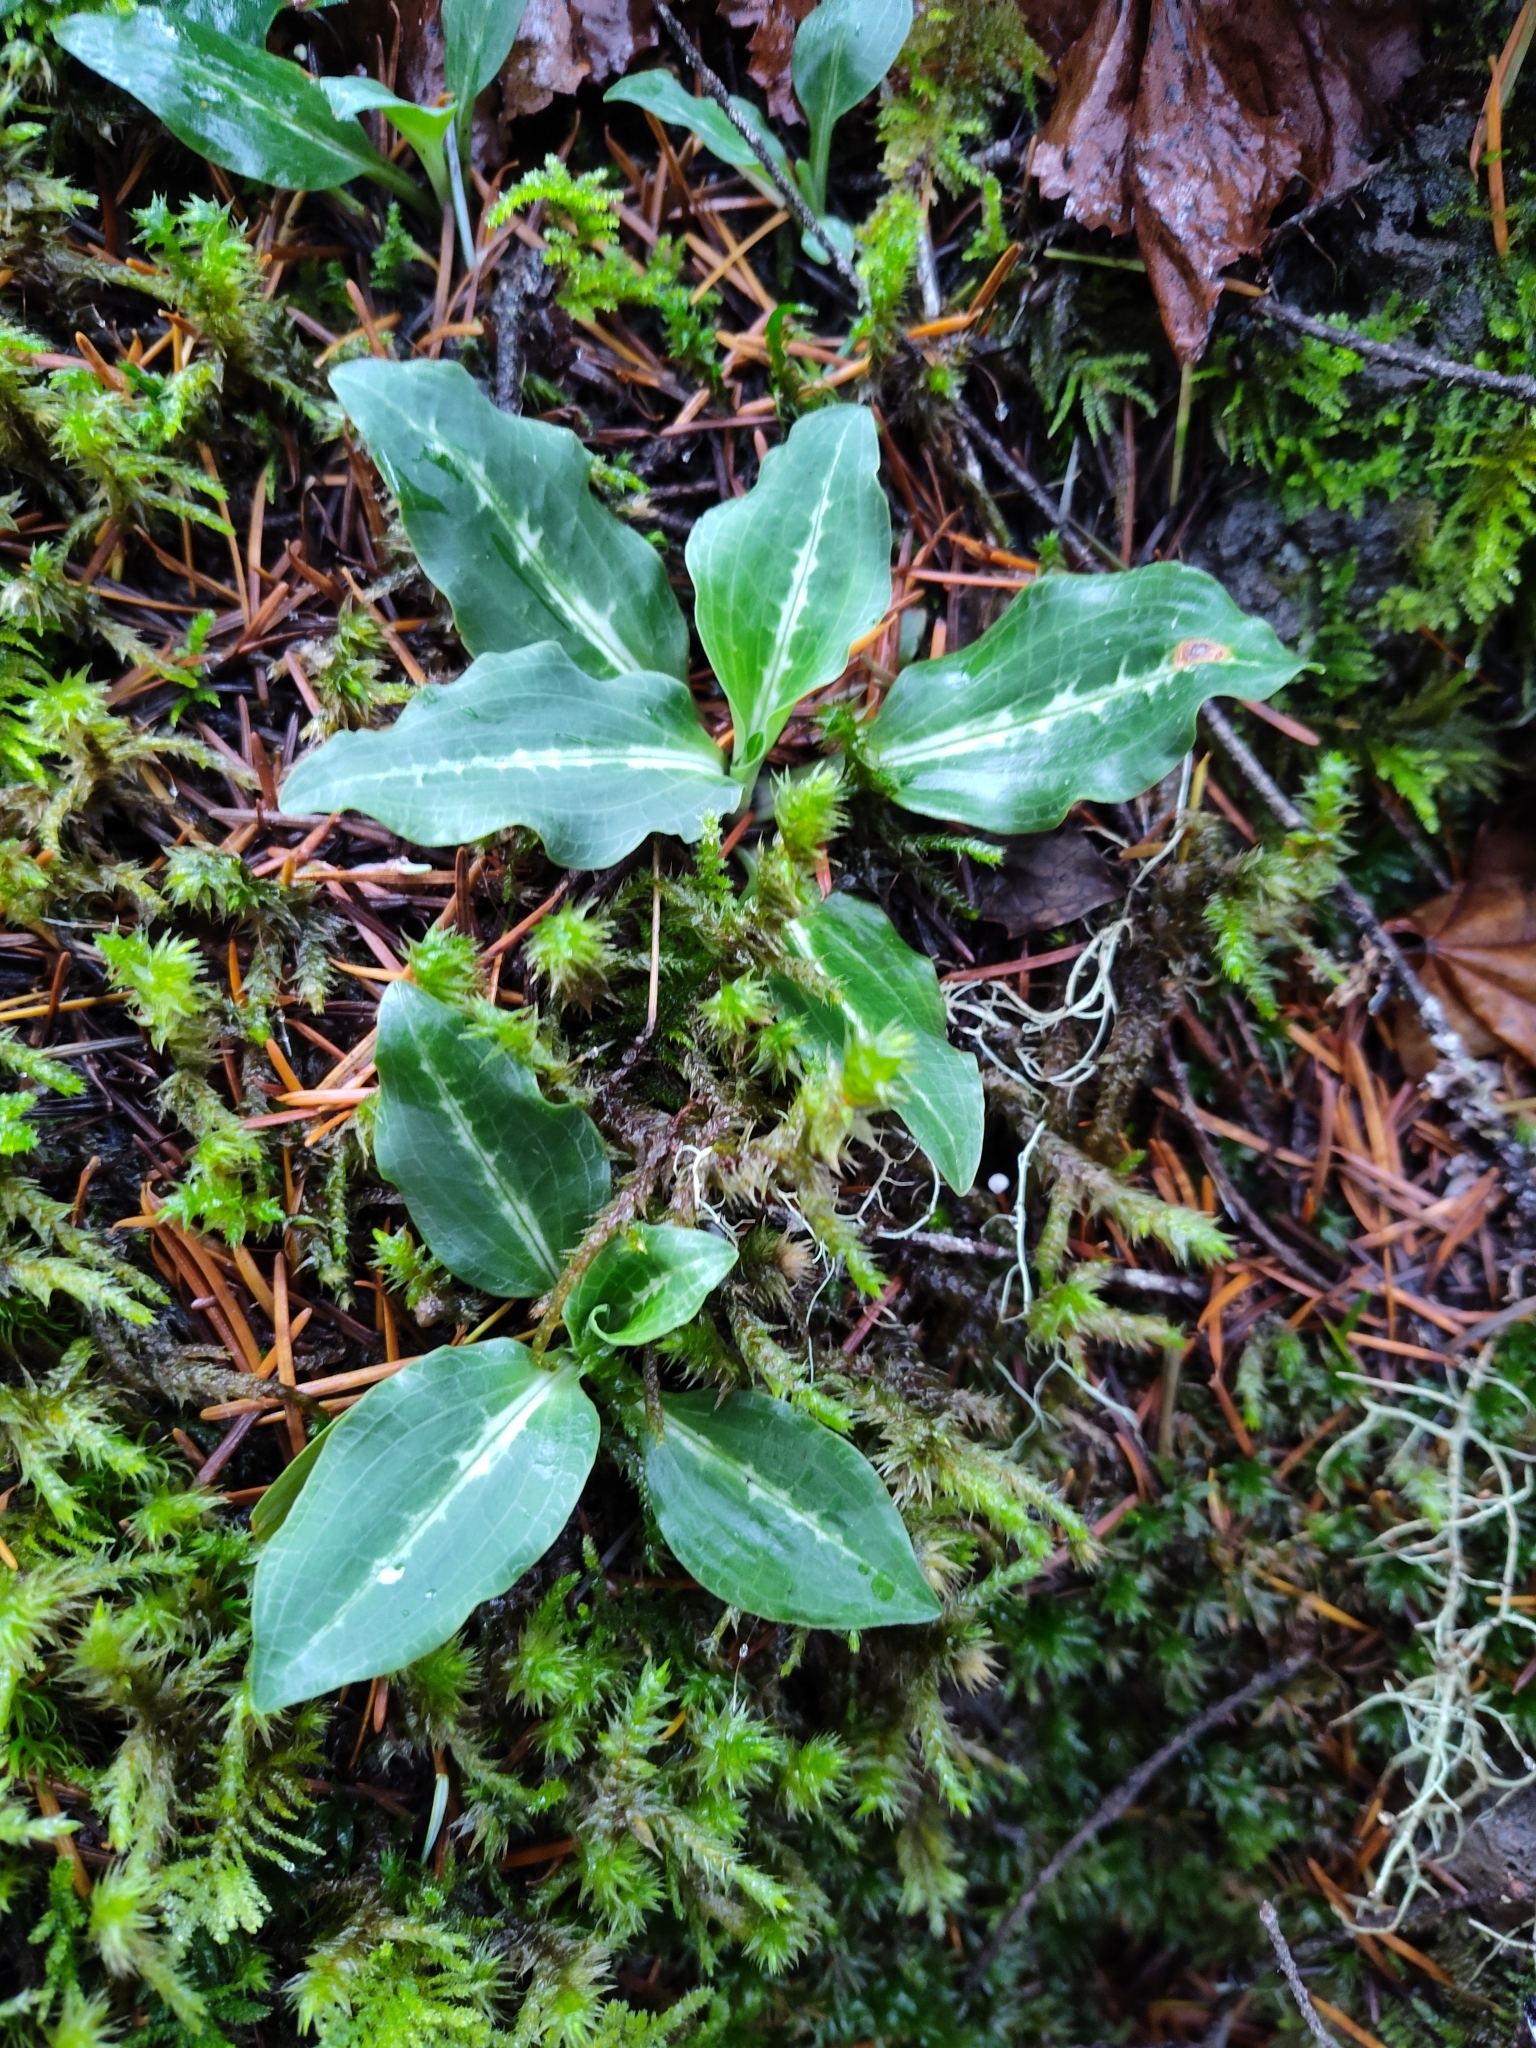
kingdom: Plantae
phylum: Tracheophyta
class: Liliopsida
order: Asparagales
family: Orchidaceae
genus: Goodyera
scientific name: Goodyera oblongifolia
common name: Giant rattlesnake-plantain
